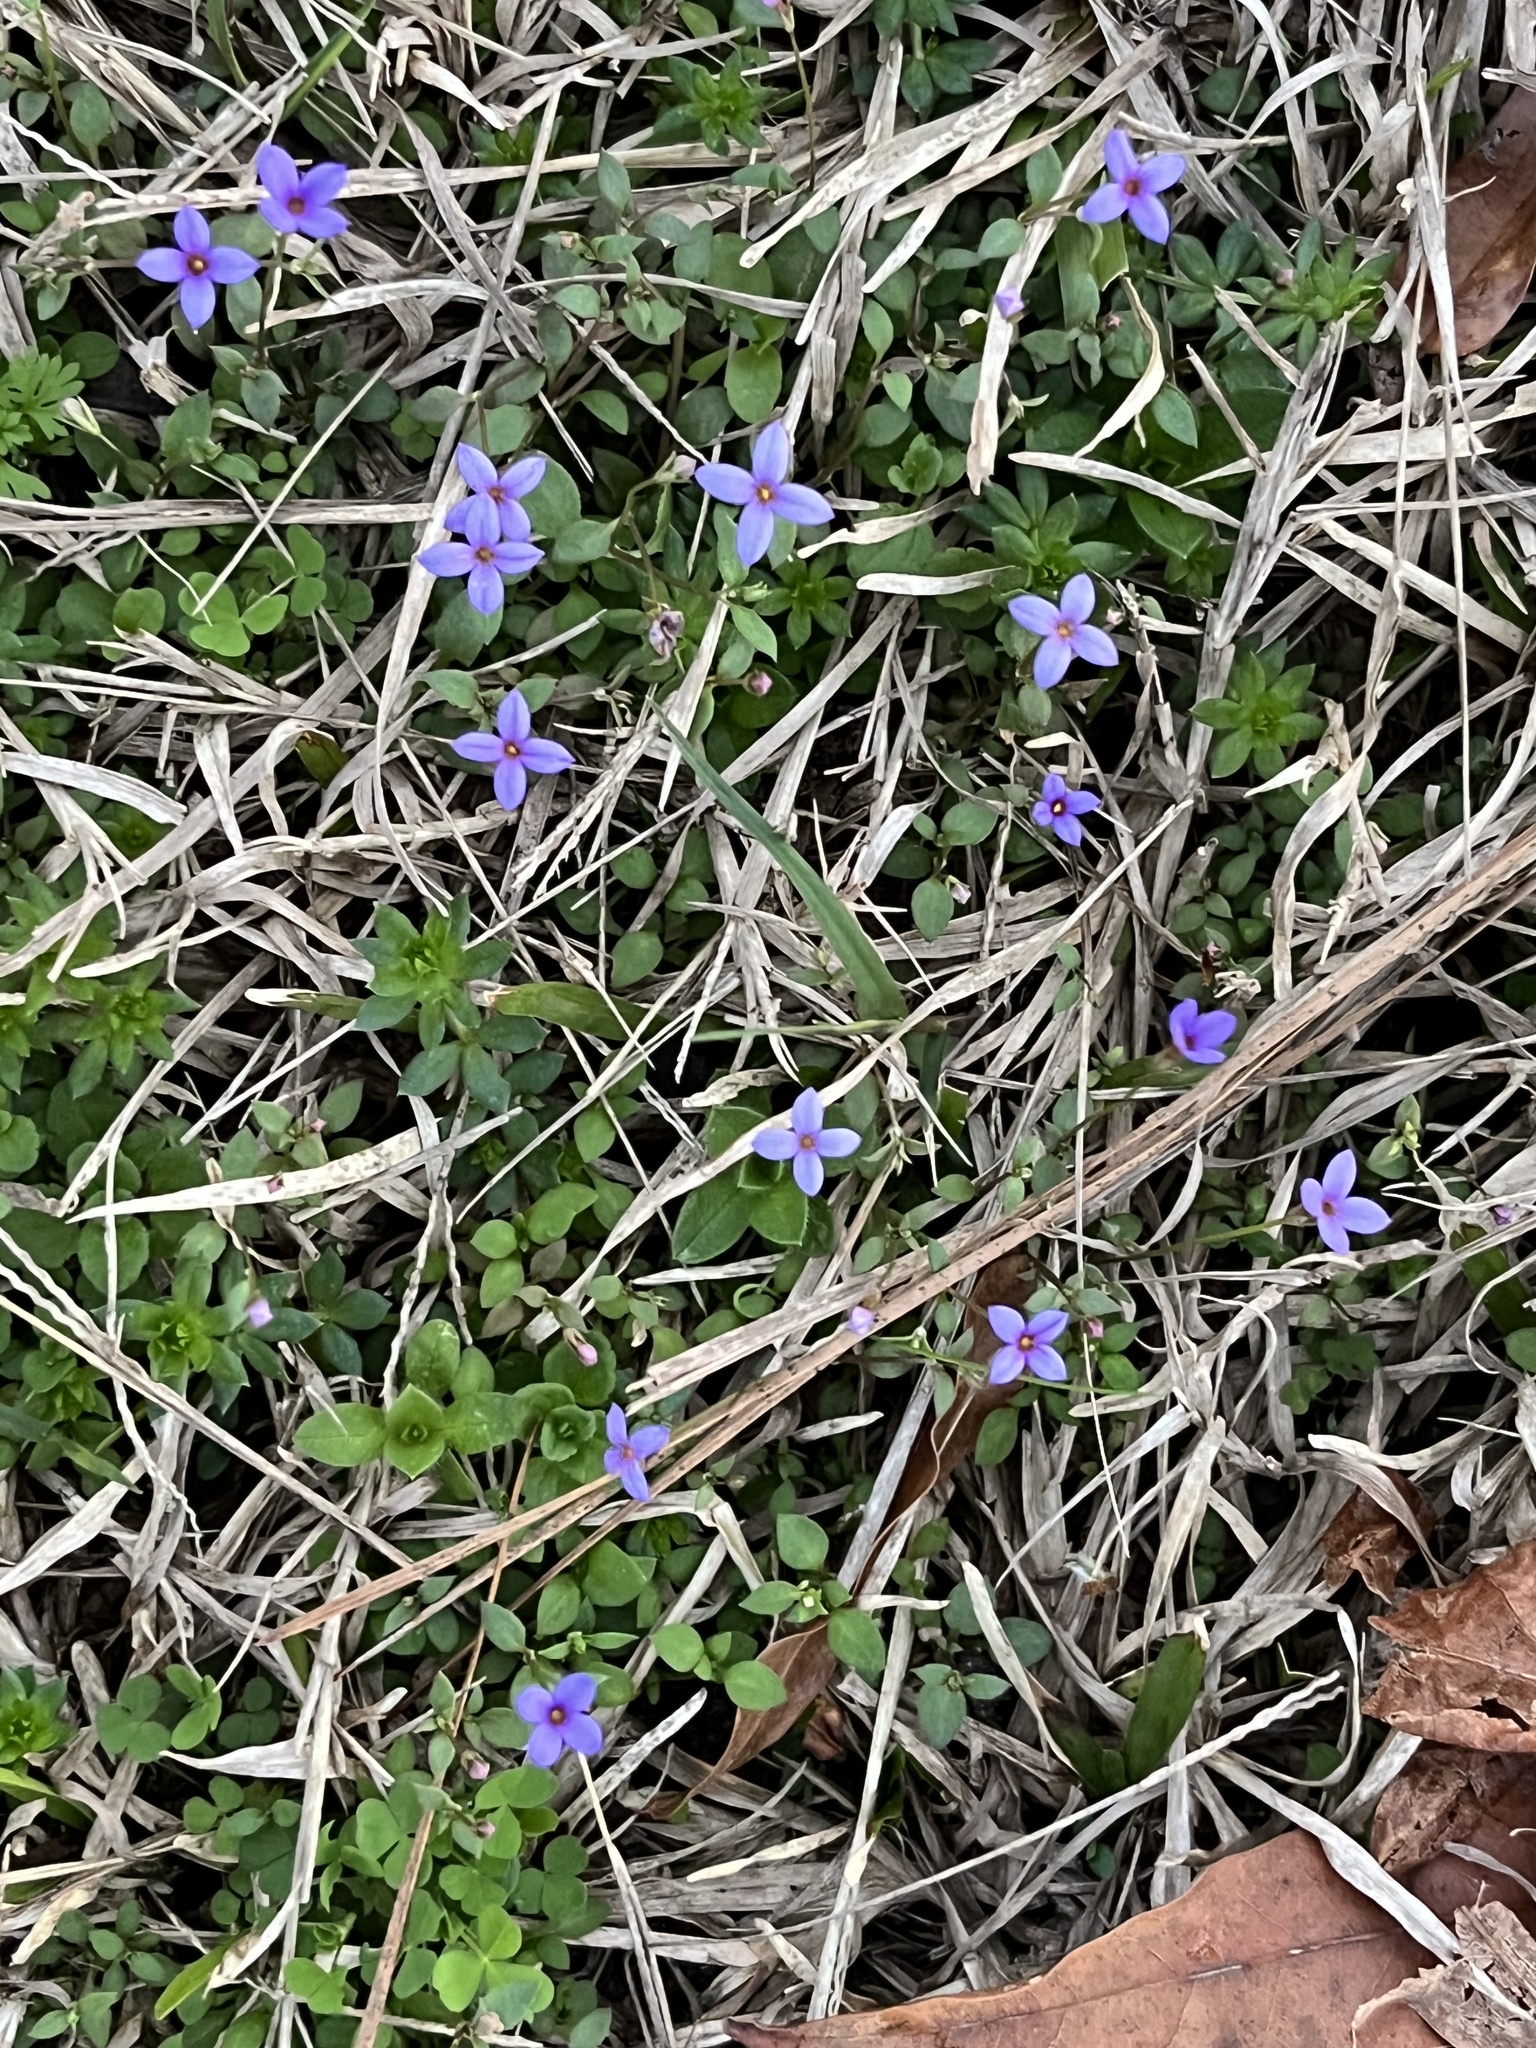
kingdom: Plantae
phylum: Tracheophyta
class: Magnoliopsida
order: Gentianales
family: Rubiaceae
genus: Houstonia
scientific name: Houstonia pusilla
